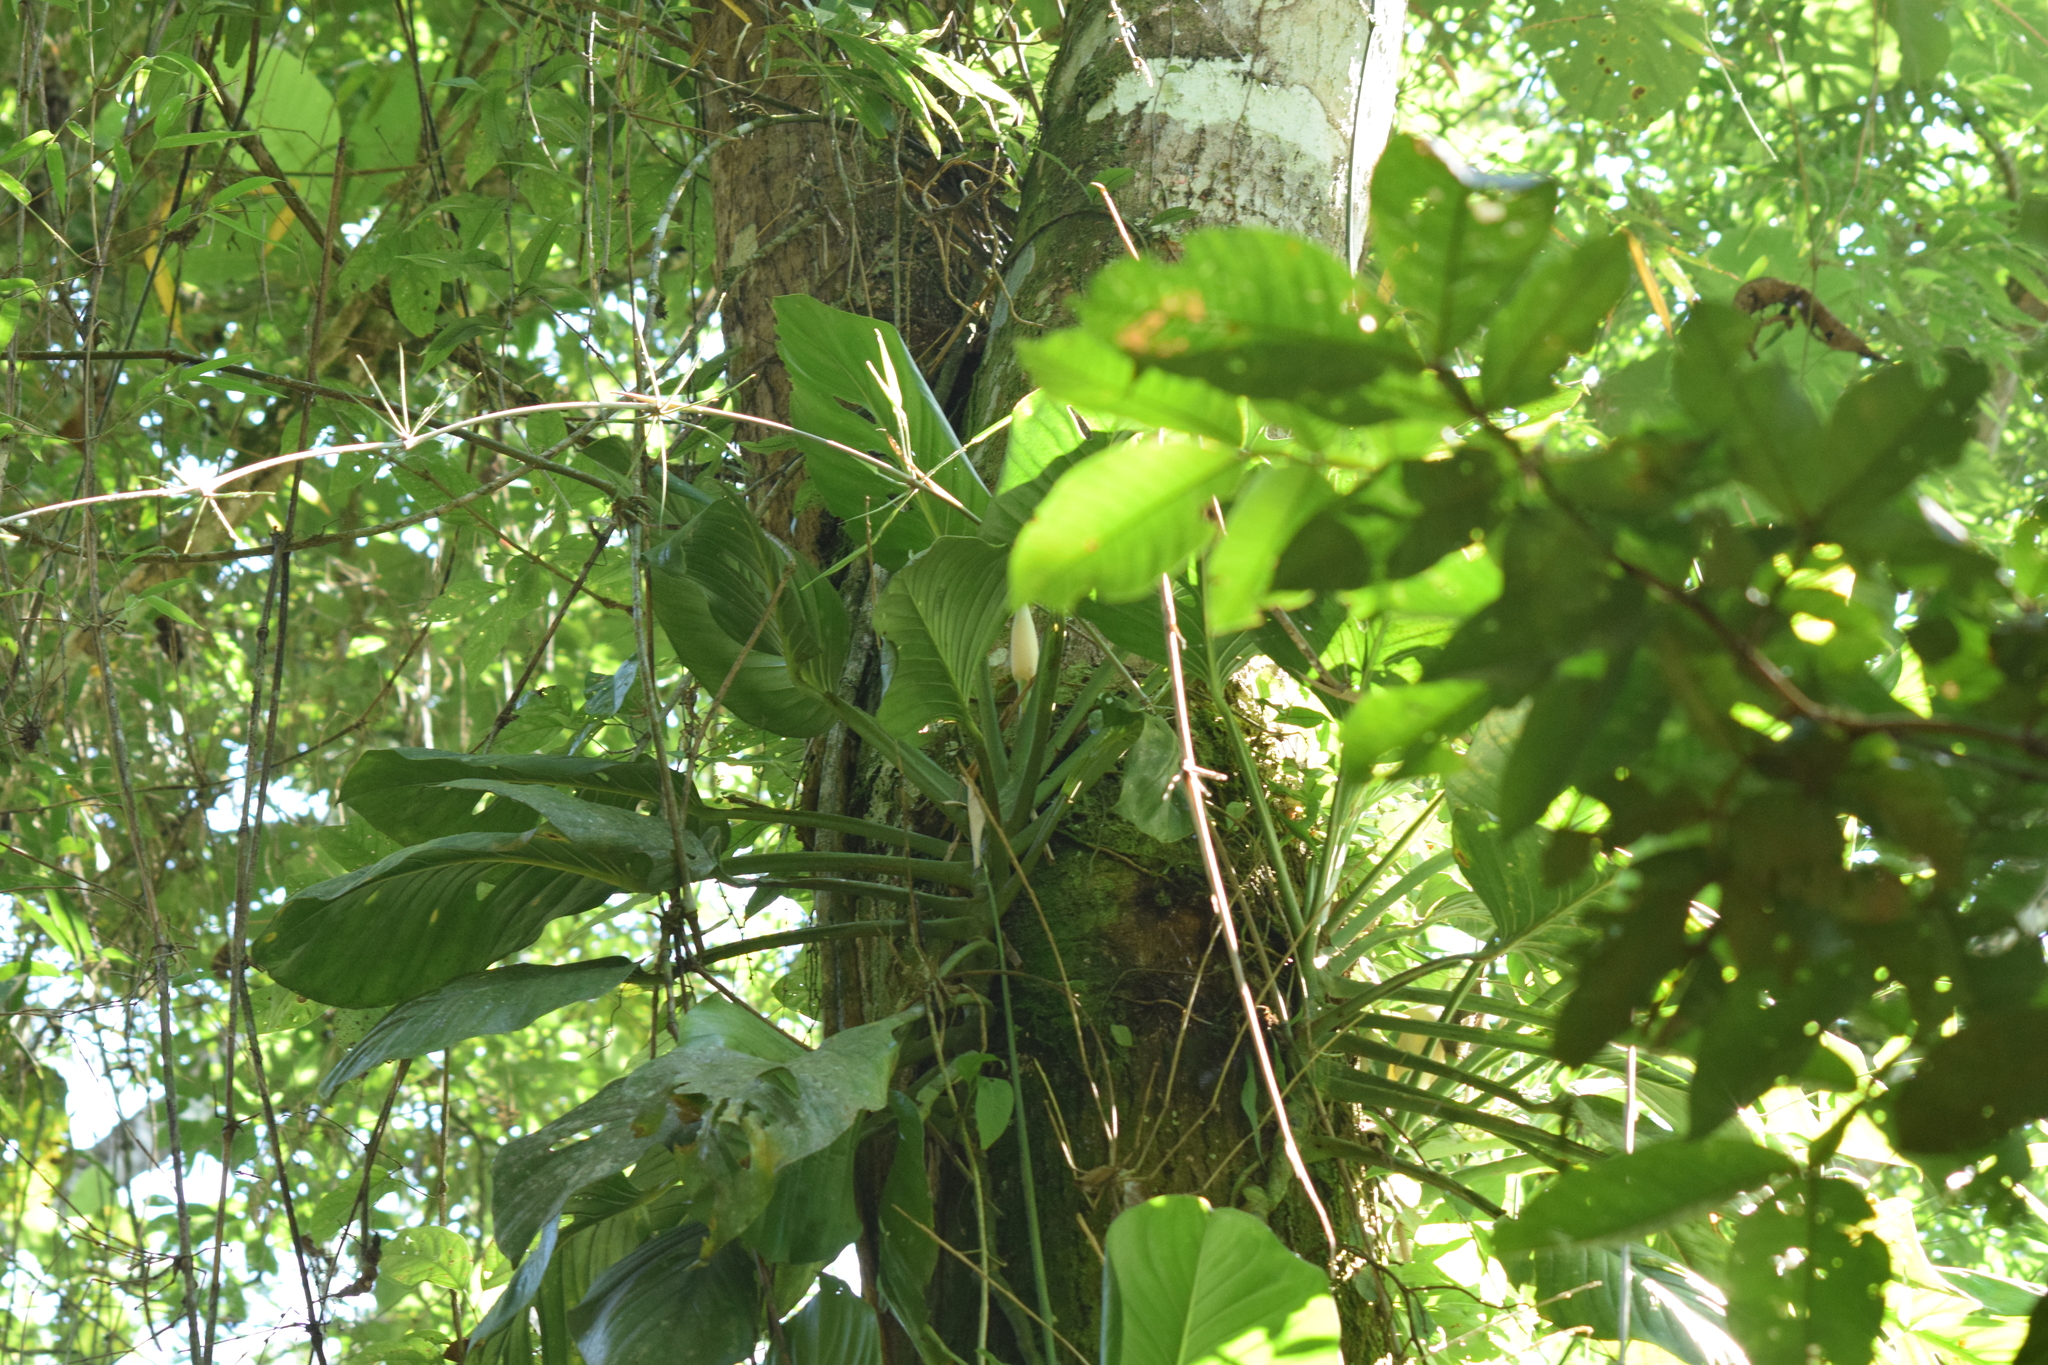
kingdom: Plantae
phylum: Tracheophyta
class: Liliopsida
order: Alismatales
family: Araceae
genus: Monstera
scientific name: Monstera adansonii
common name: Tarovine
